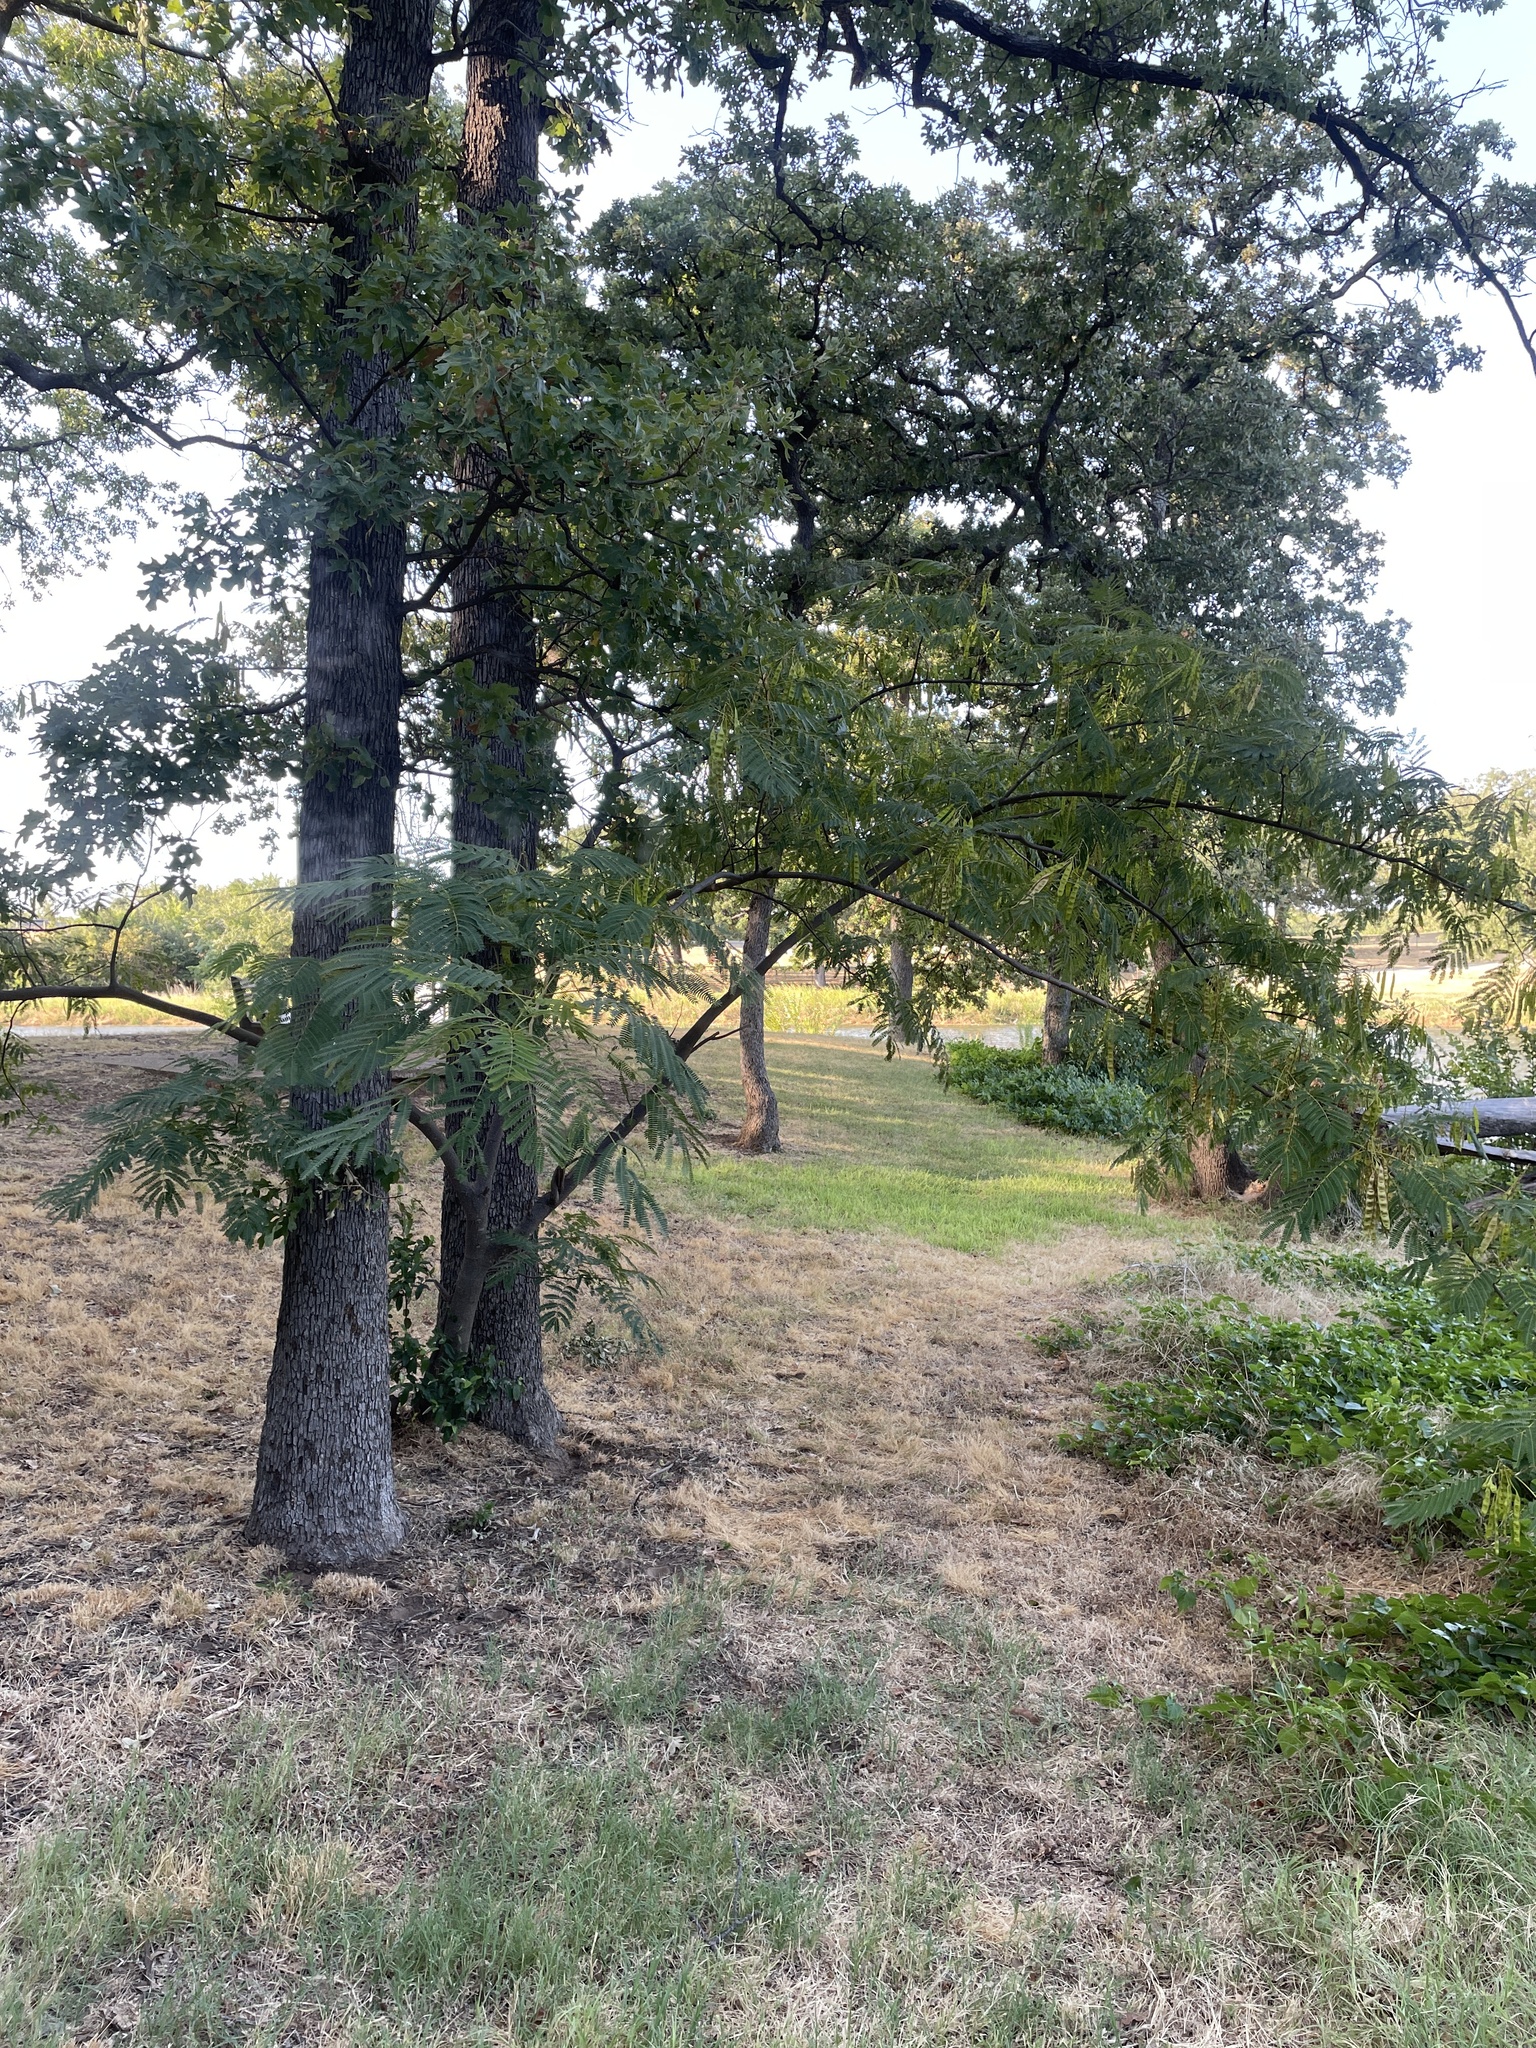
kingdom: Plantae
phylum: Tracheophyta
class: Magnoliopsida
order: Fabales
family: Fabaceae
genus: Albizia
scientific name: Albizia julibrissin
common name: Silktree
